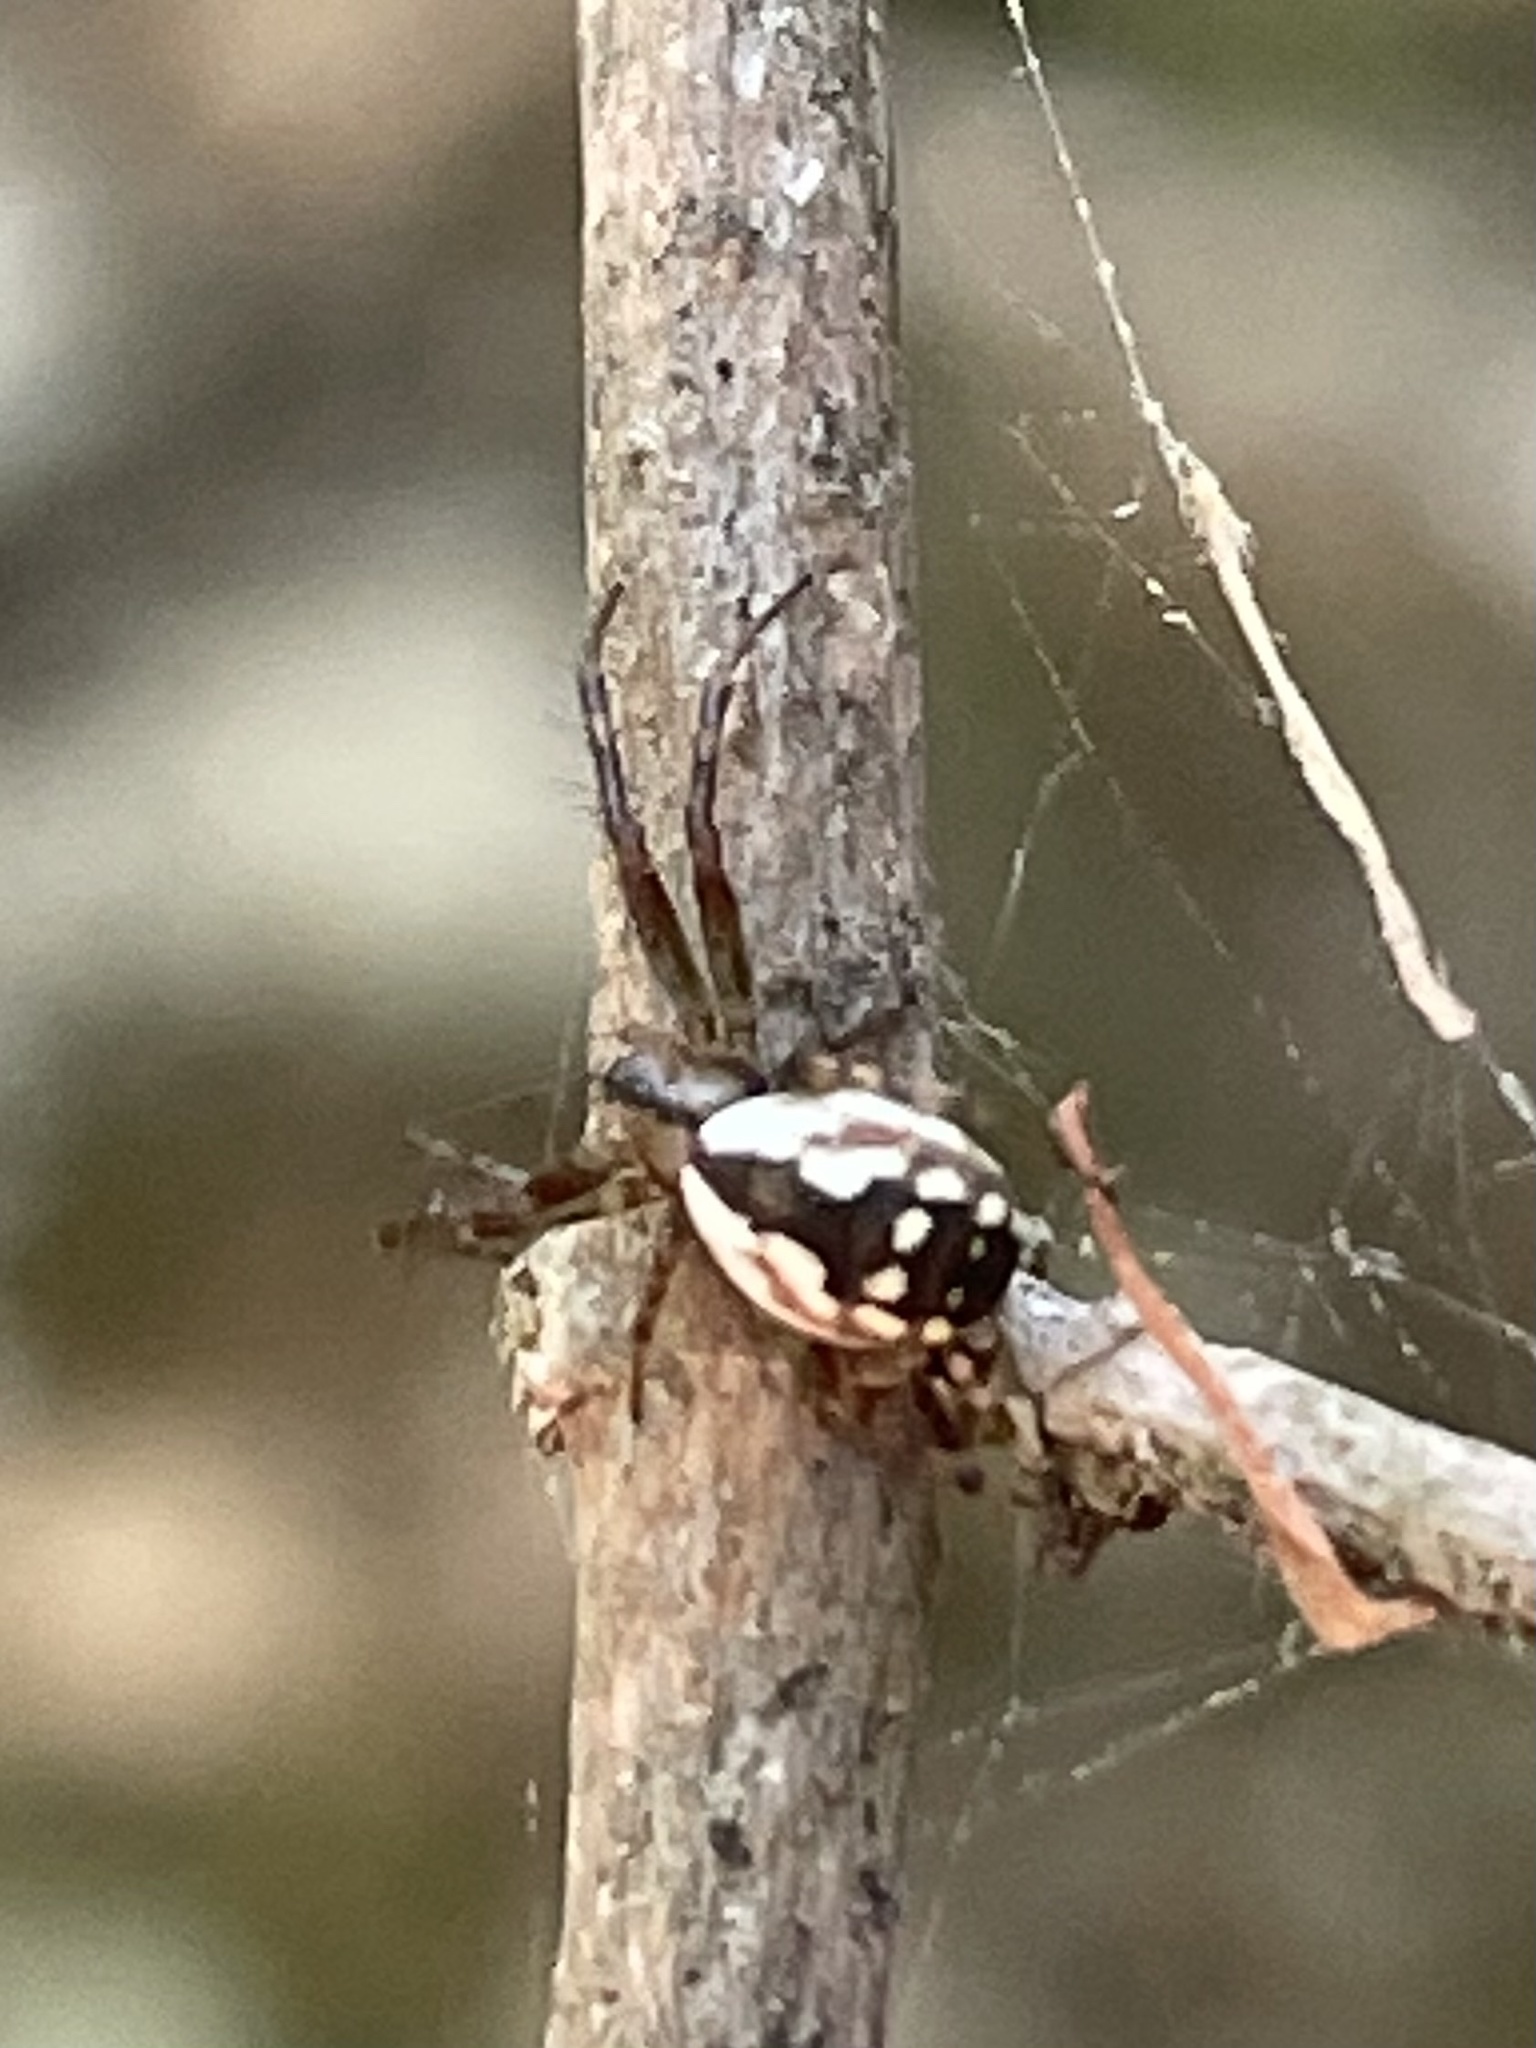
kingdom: Animalia
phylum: Arthropoda
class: Arachnida
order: Araneae
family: Araneidae
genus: Mangora
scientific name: Mangora placida
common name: Tuft-legged orbweaver
